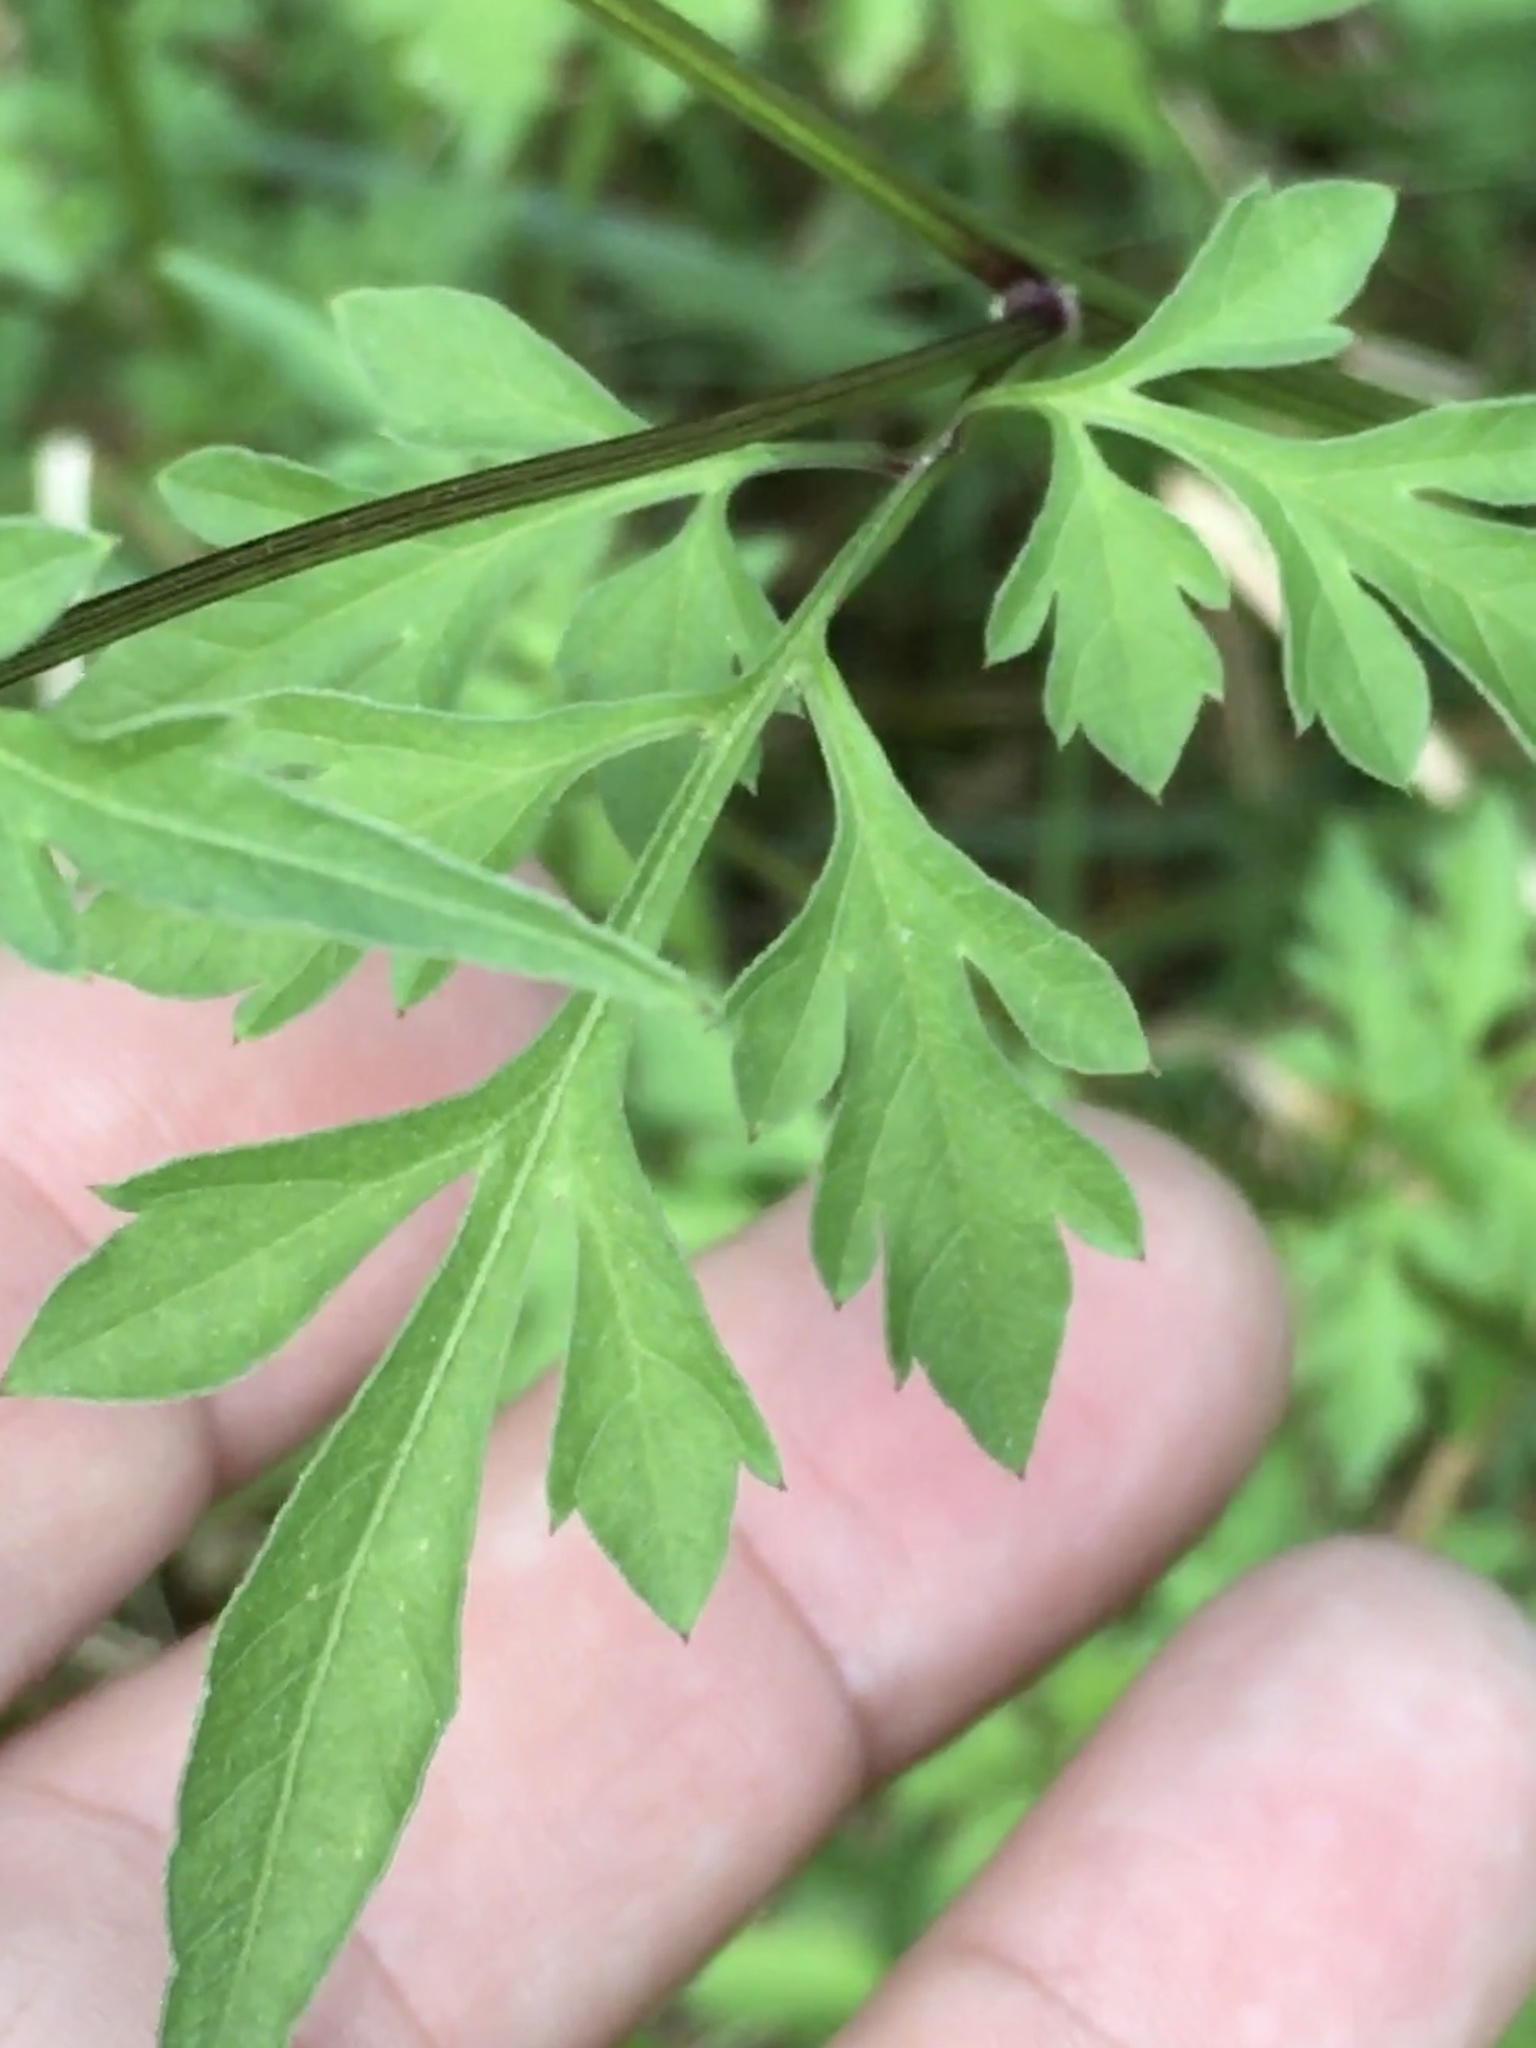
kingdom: Plantae
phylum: Tracheophyta
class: Magnoliopsida
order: Asterales
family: Asteraceae
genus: Bidens
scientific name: Bidens bipinnata
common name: Spanish-needles
